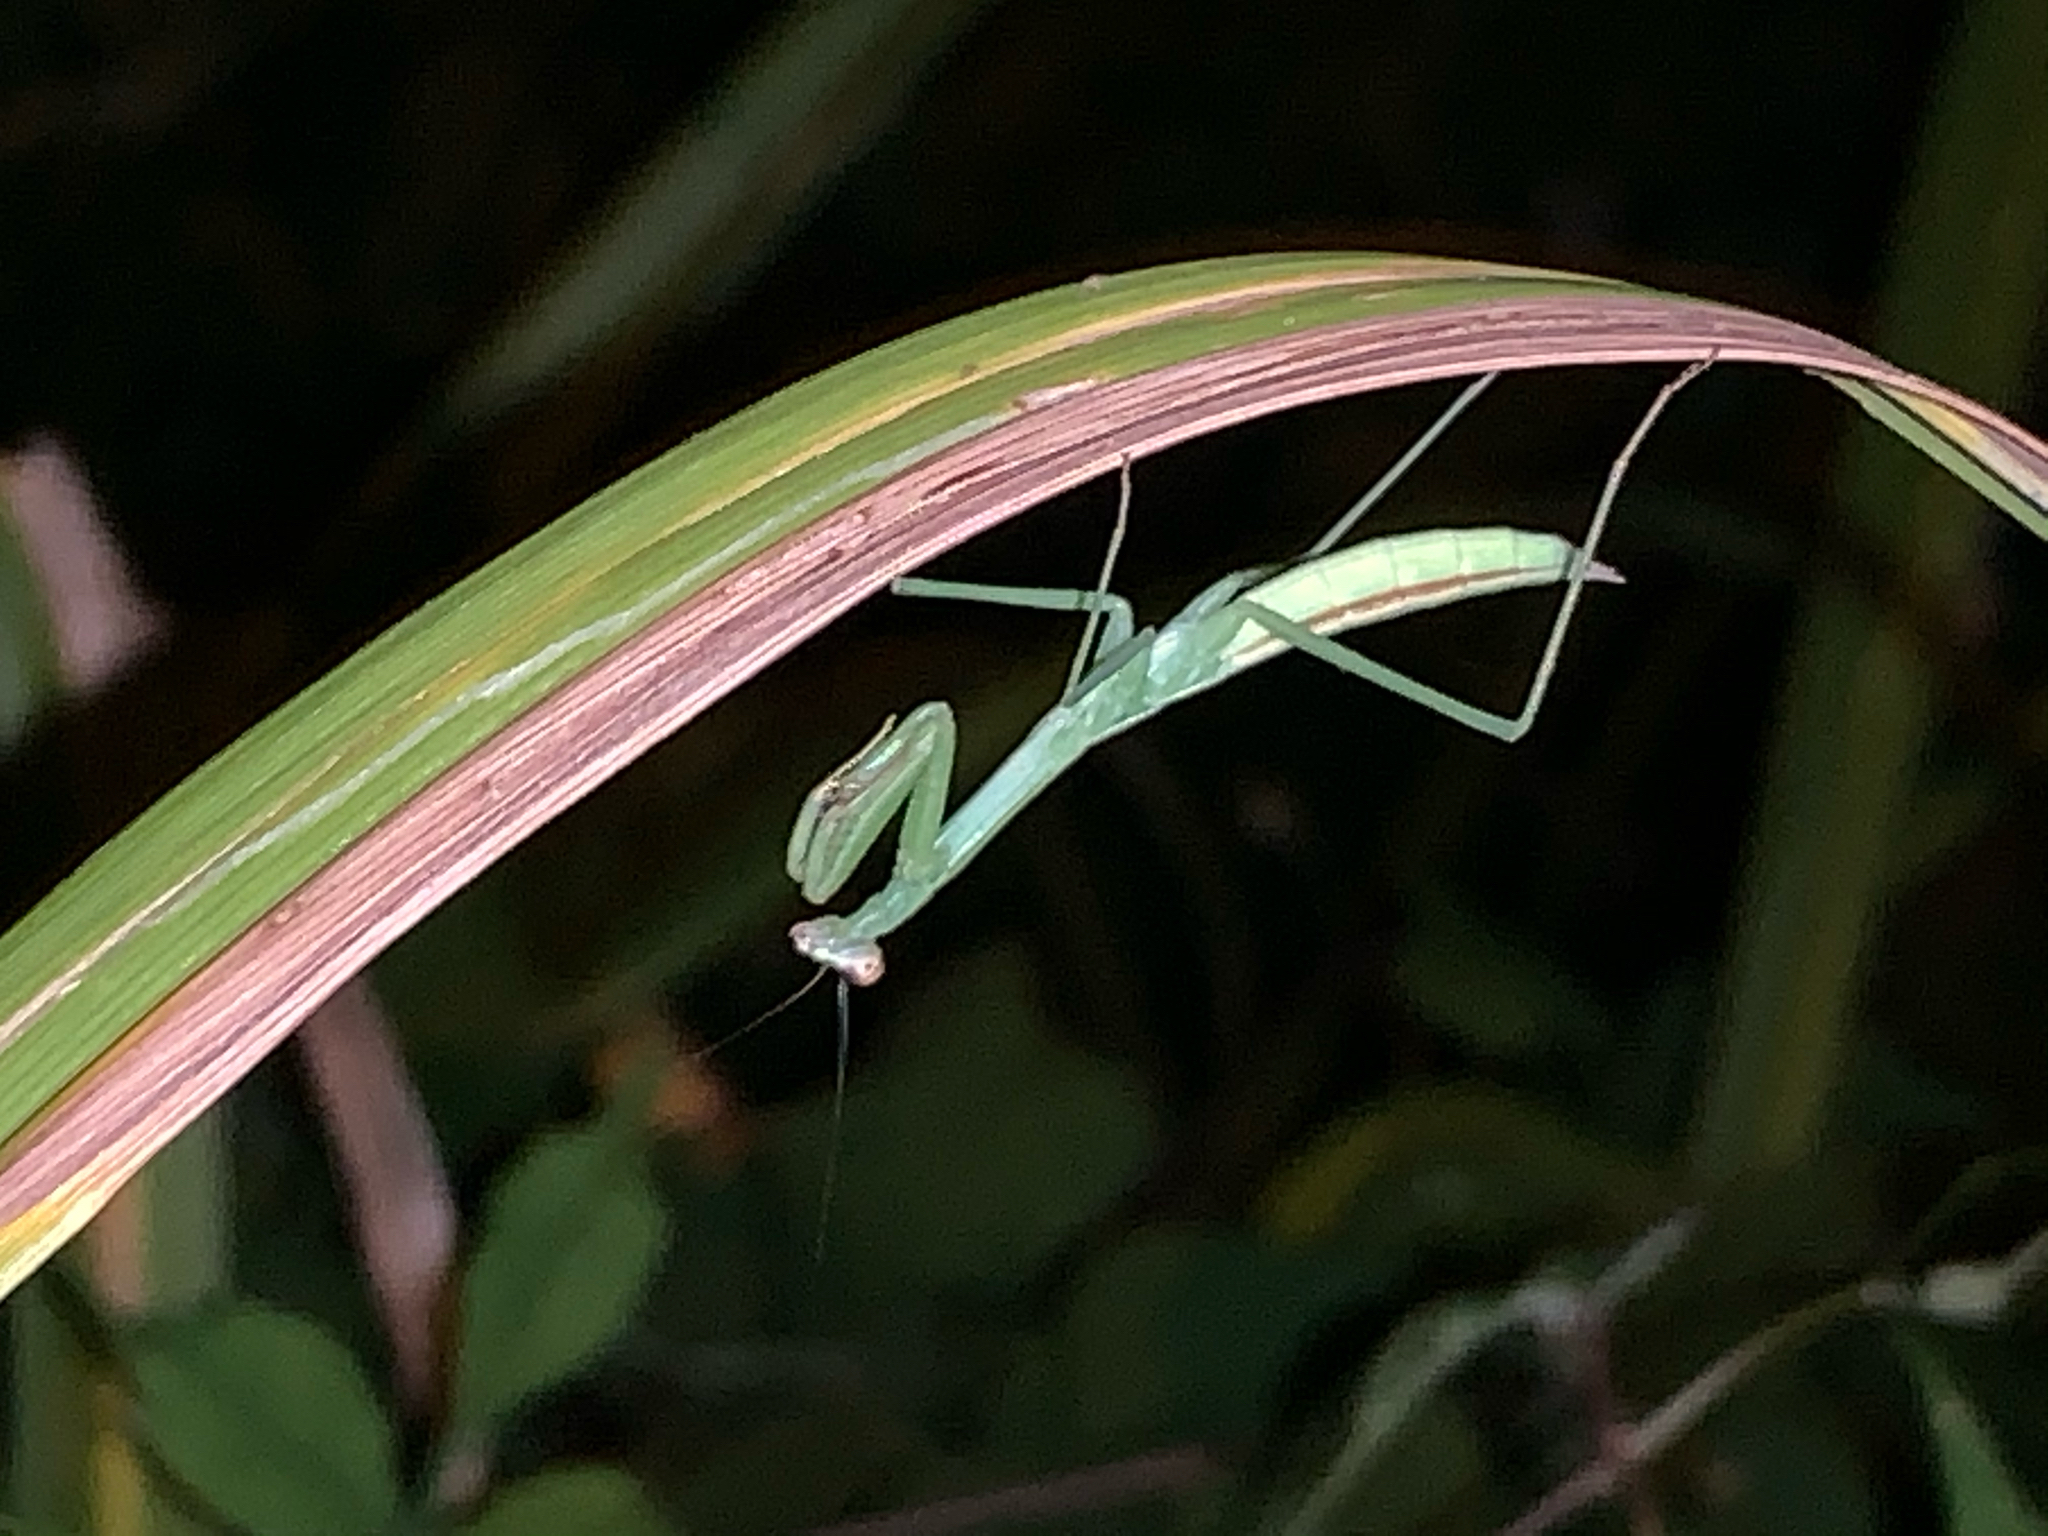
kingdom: Animalia
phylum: Arthropoda
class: Insecta
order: Mantodea
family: Mantidae
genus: Tenodera
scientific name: Tenodera
